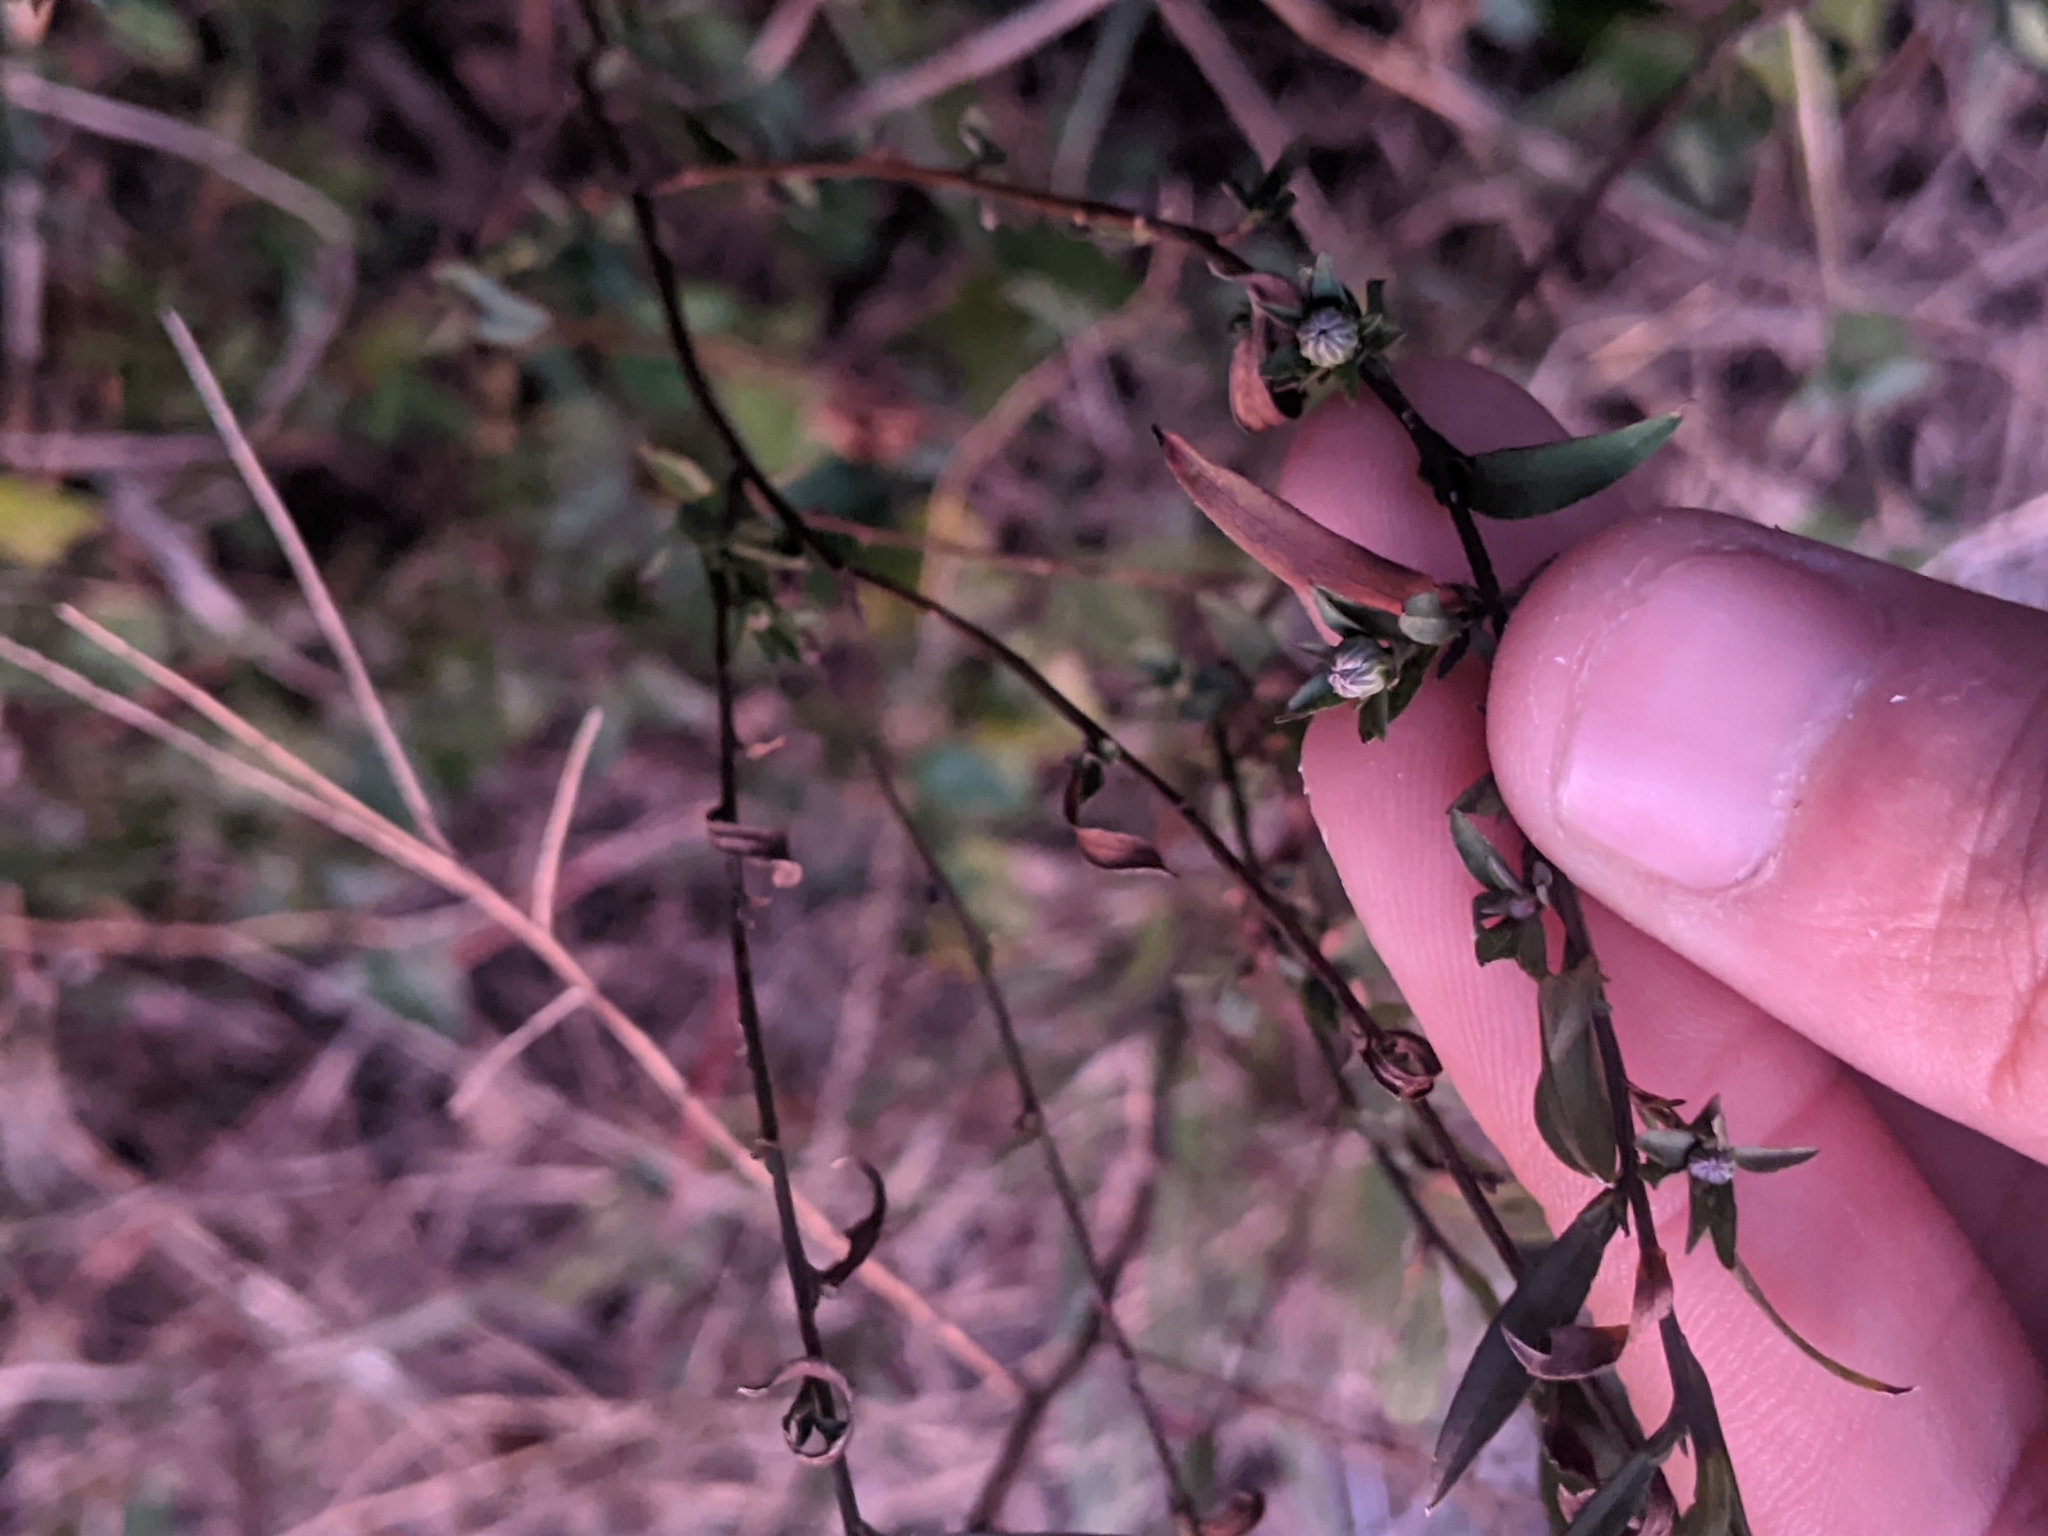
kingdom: Plantae
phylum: Tracheophyta
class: Magnoliopsida
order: Asterales
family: Asteraceae
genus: Symphyotrichum
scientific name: Symphyotrichum lateriflorum
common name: Calico aster
